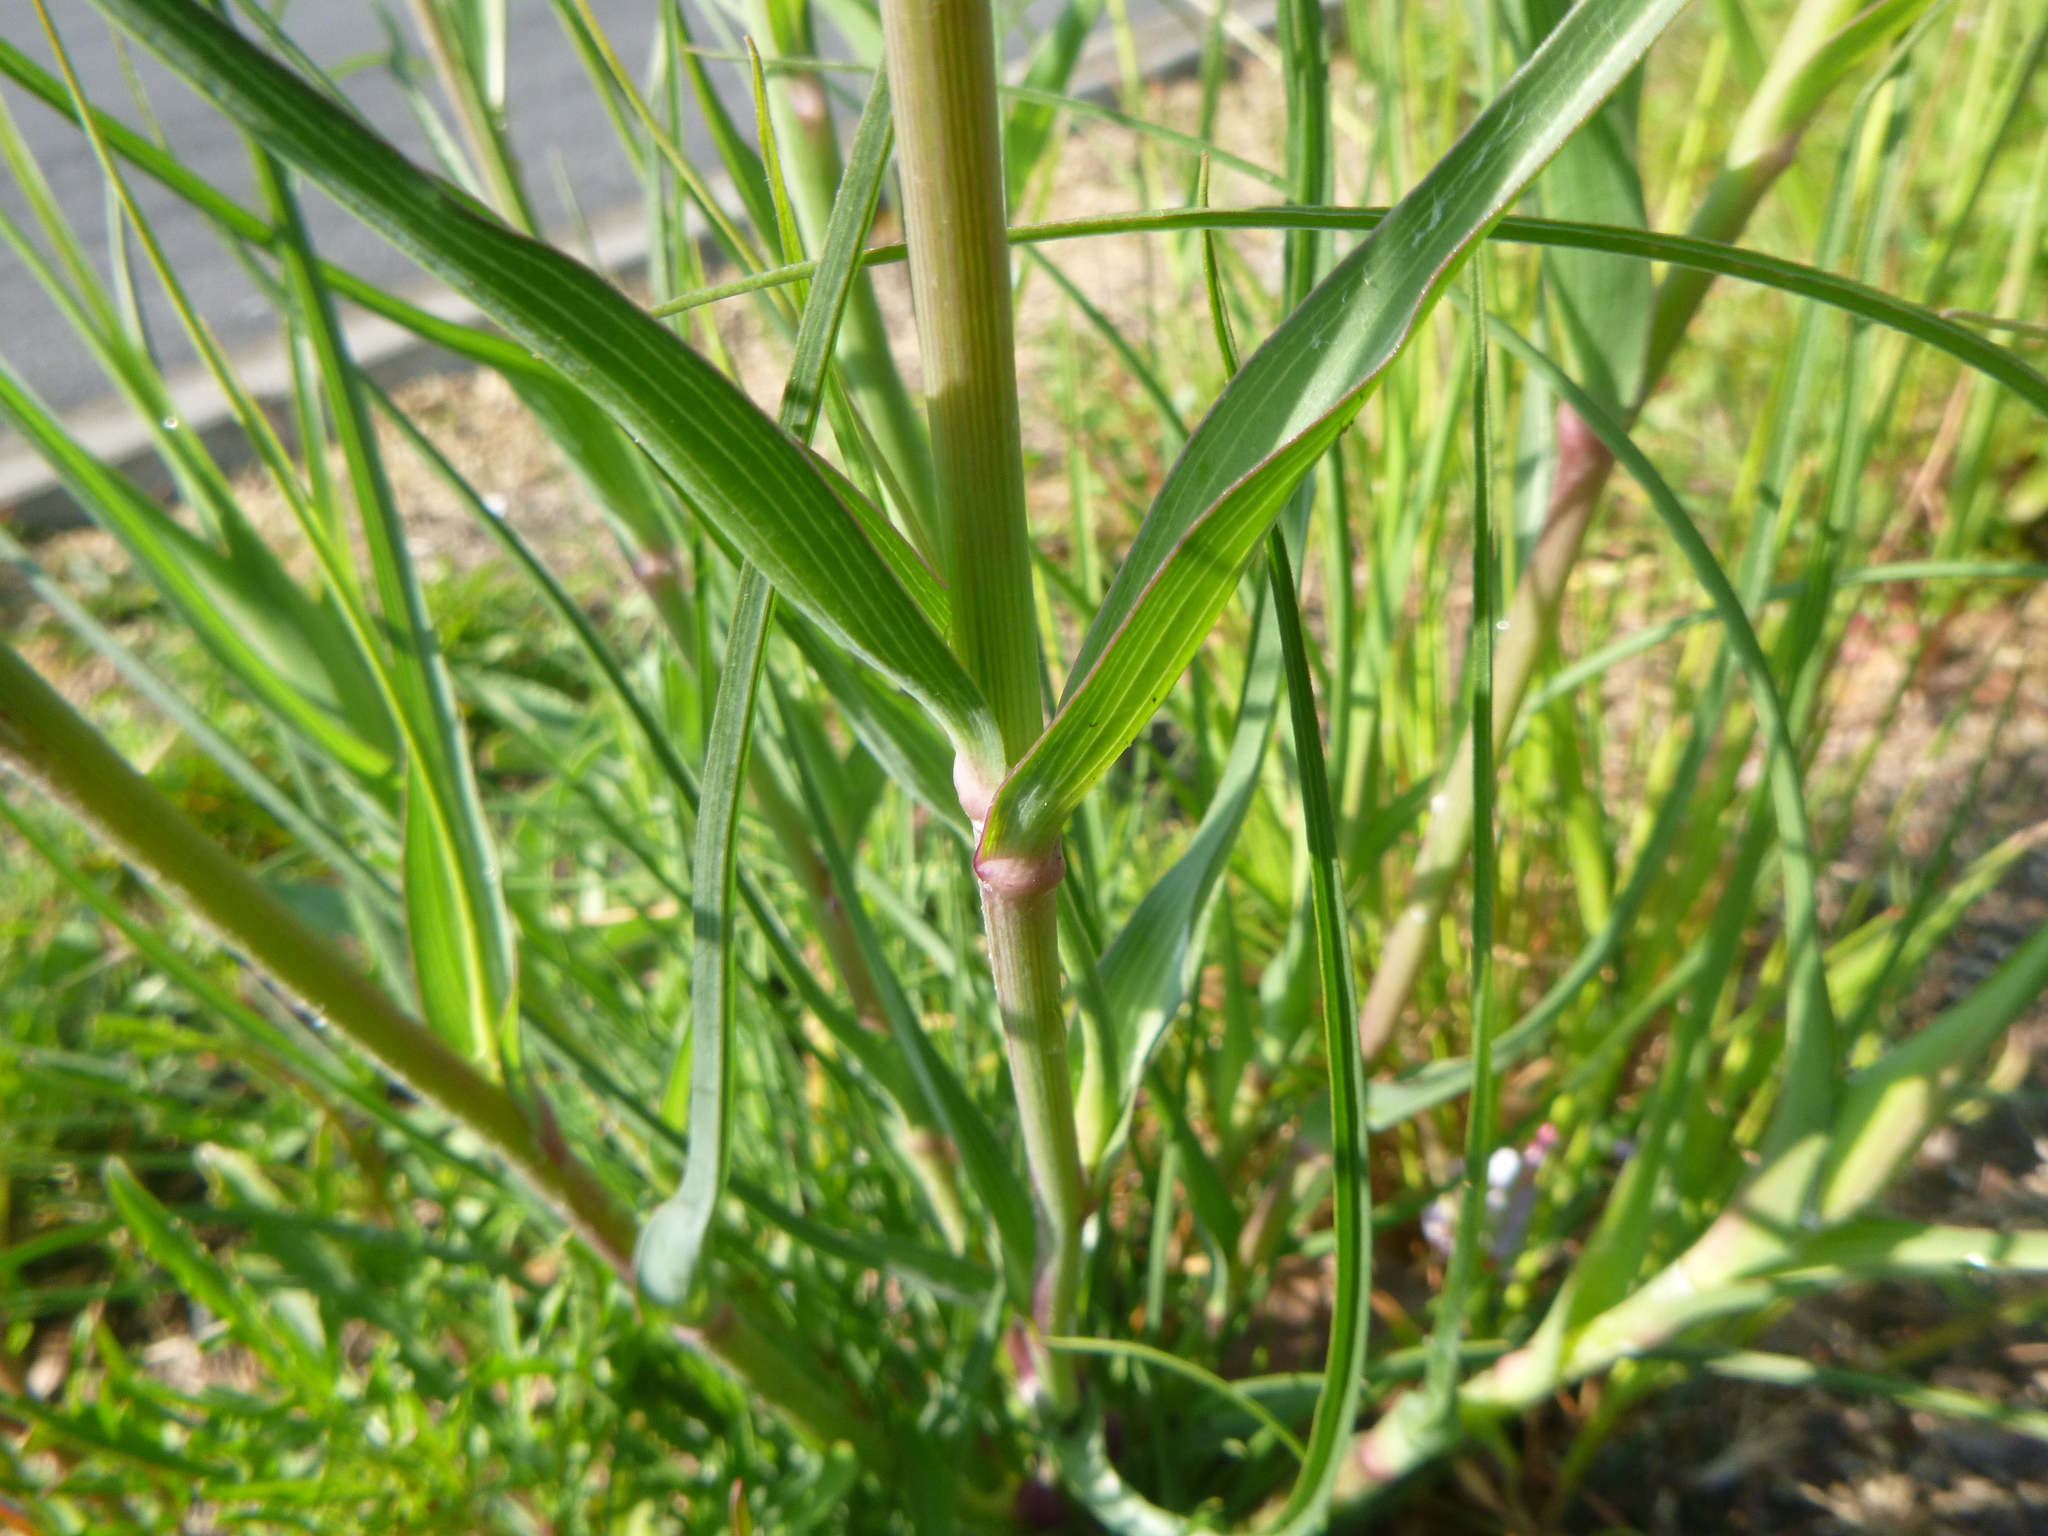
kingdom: Plantae
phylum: Tracheophyta
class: Magnoliopsida
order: Asterales
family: Asteraceae
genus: Tragopogon
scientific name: Tragopogon dubius
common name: Yellow salsify
